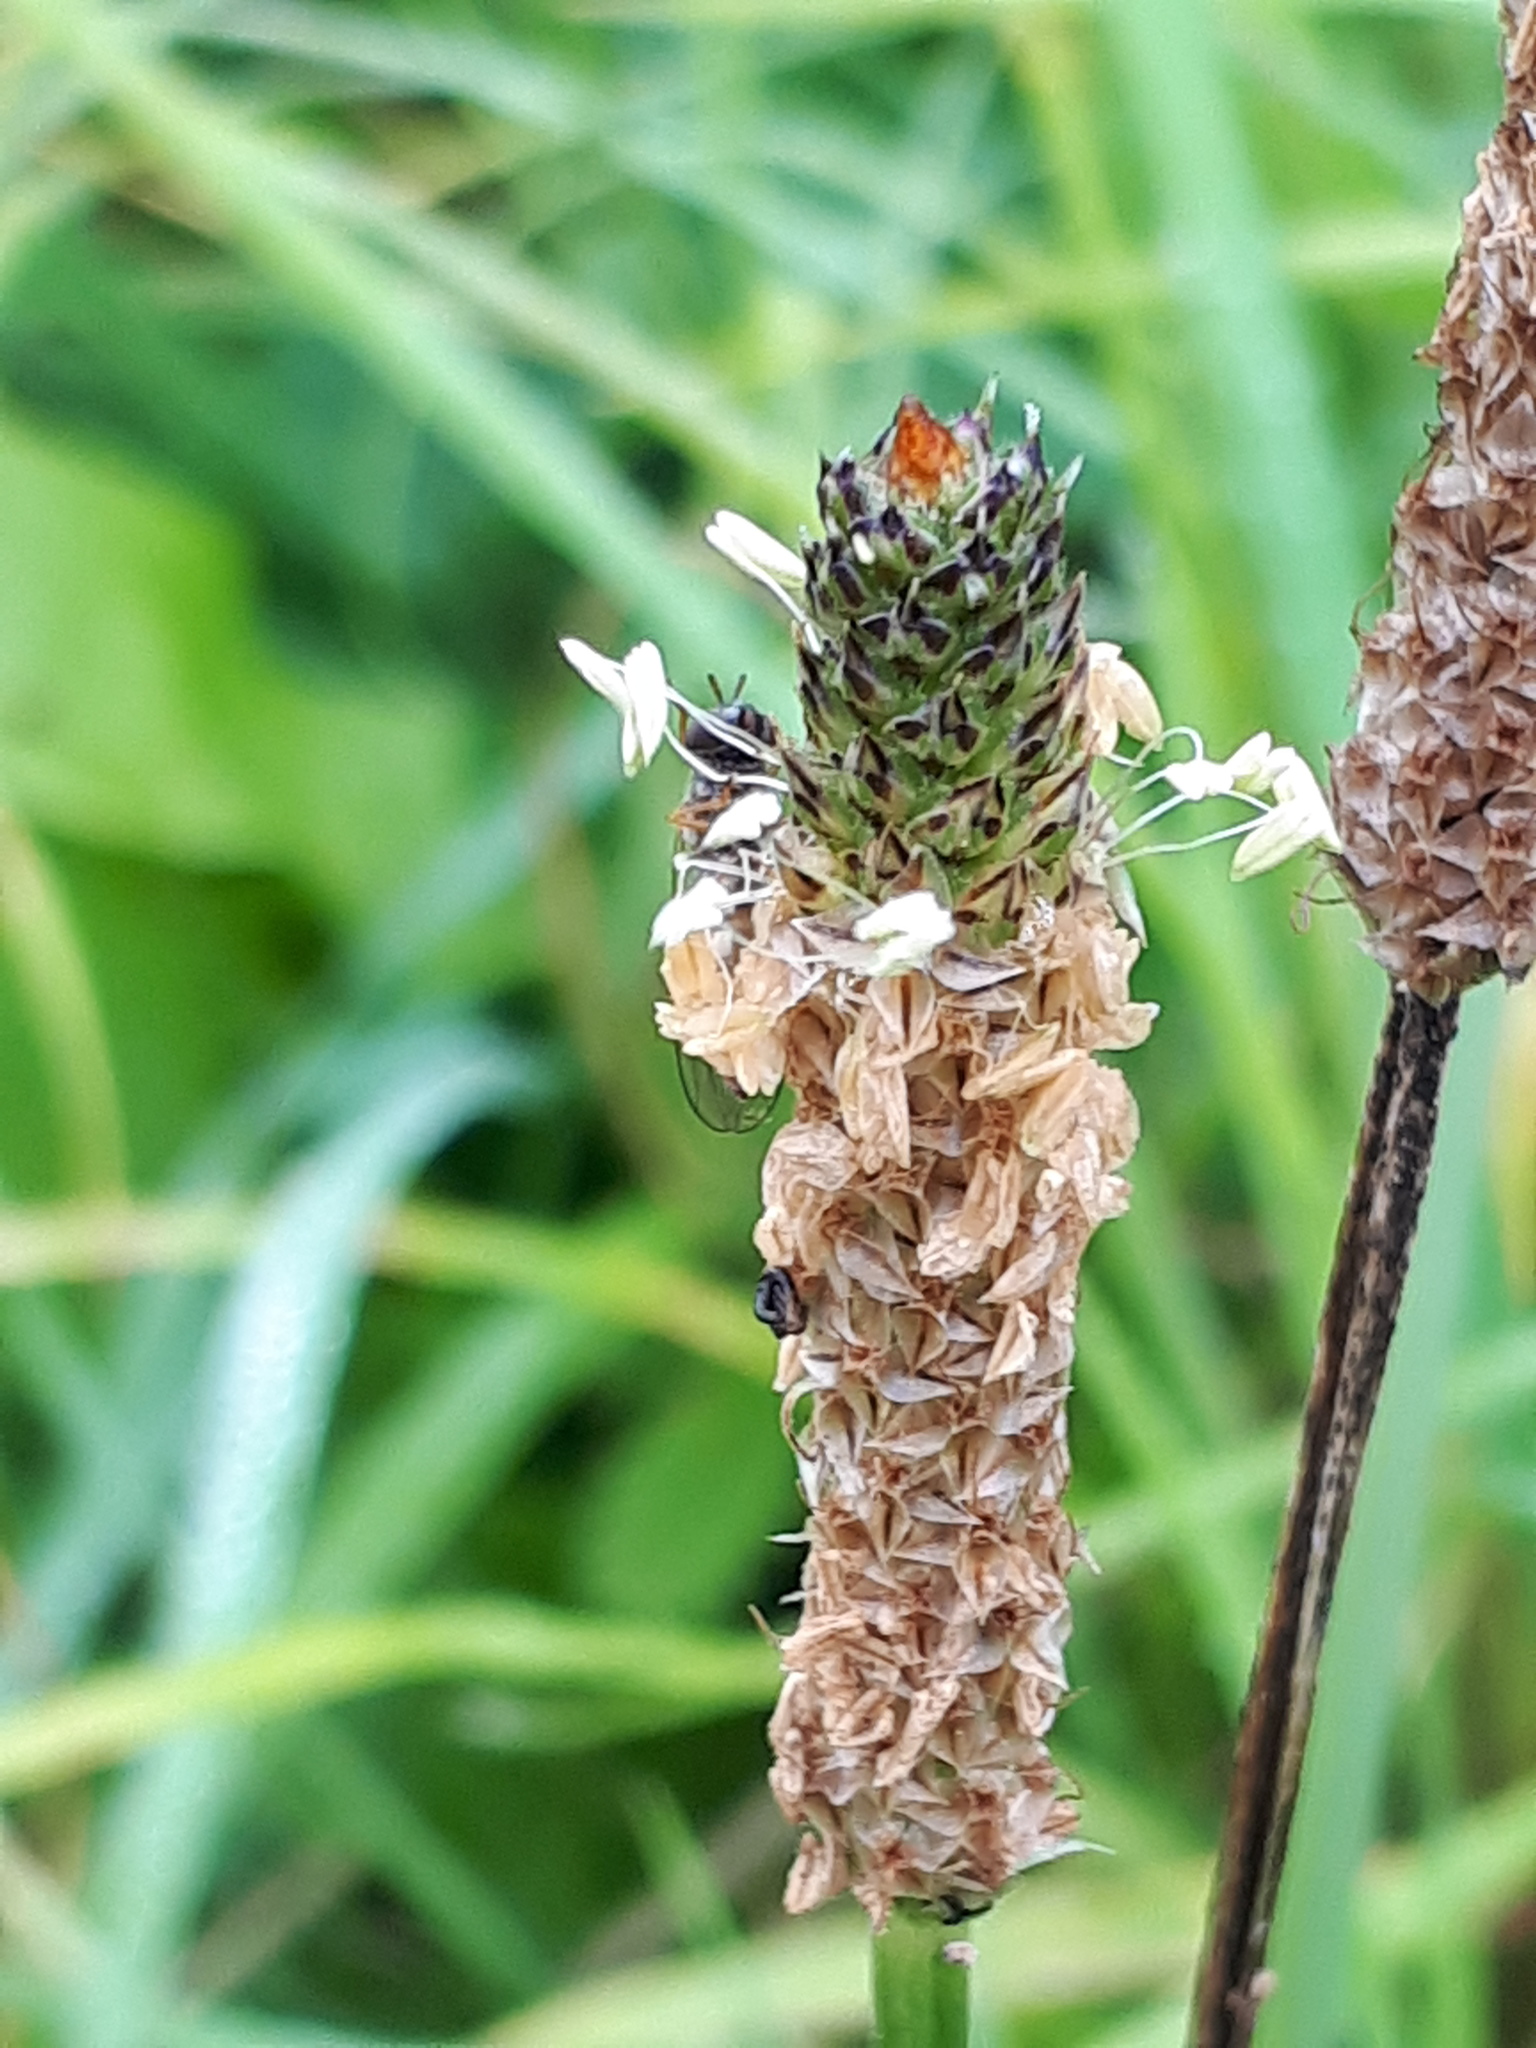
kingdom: Plantae
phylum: Tracheophyta
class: Magnoliopsida
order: Lamiales
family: Plantaginaceae
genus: Plantago
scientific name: Plantago lanceolata
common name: Ribwort plantain
